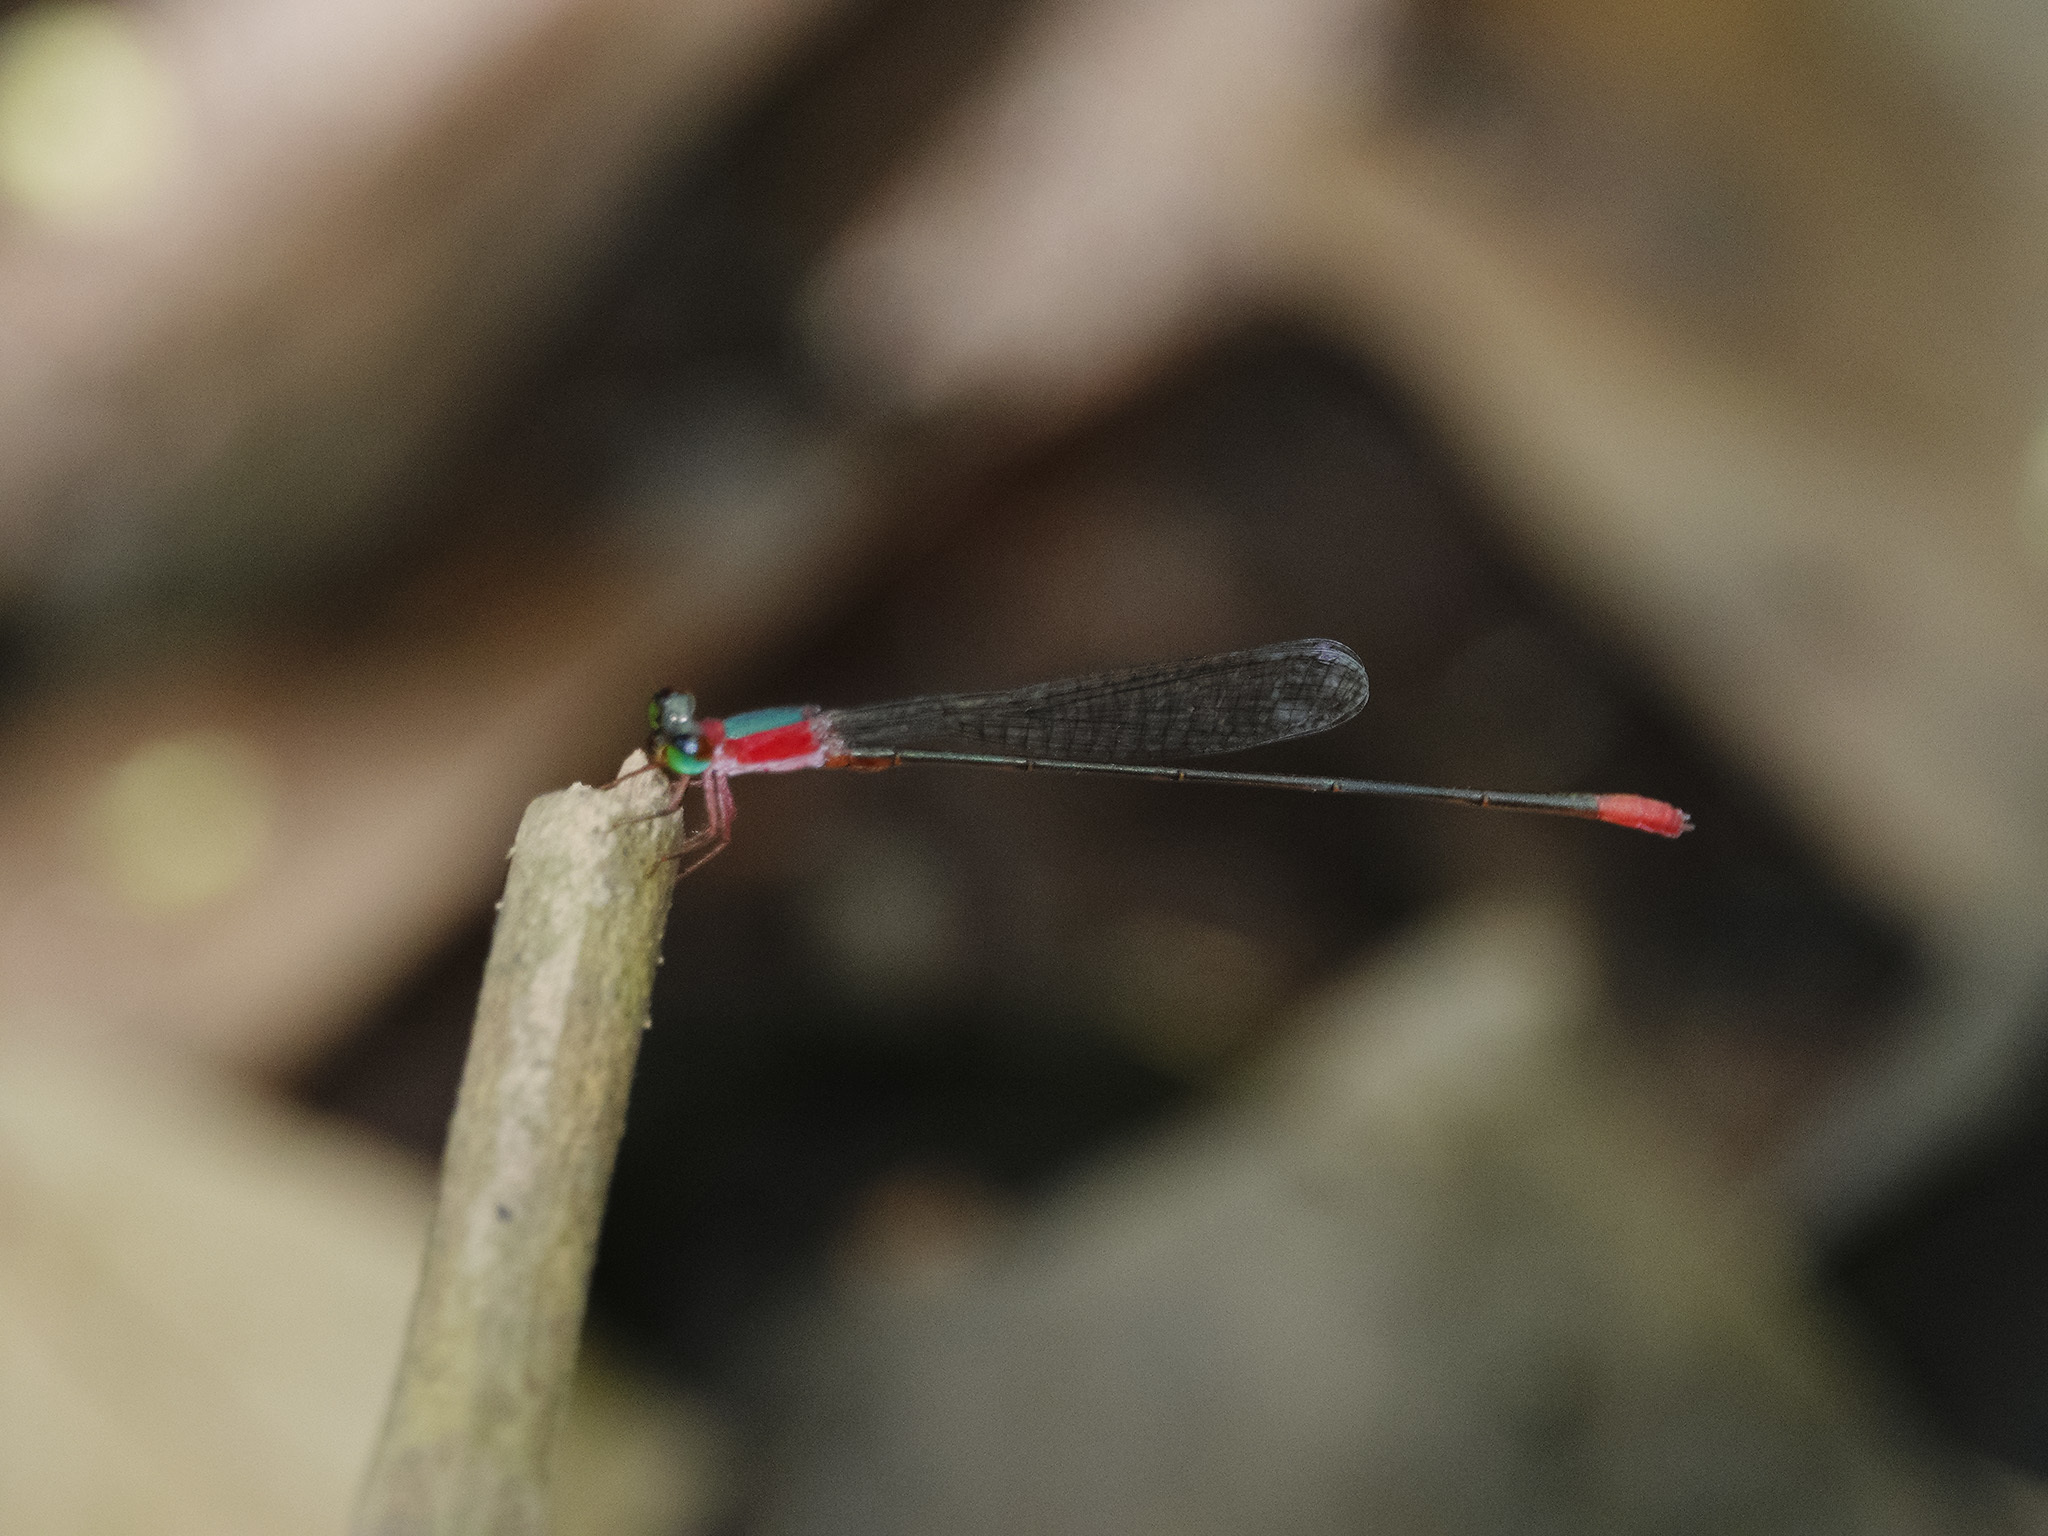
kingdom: Animalia
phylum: Arthropoda
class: Insecta
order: Odonata
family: Coenagrionidae
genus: Teinobasis
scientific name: Teinobasis ruficollis
